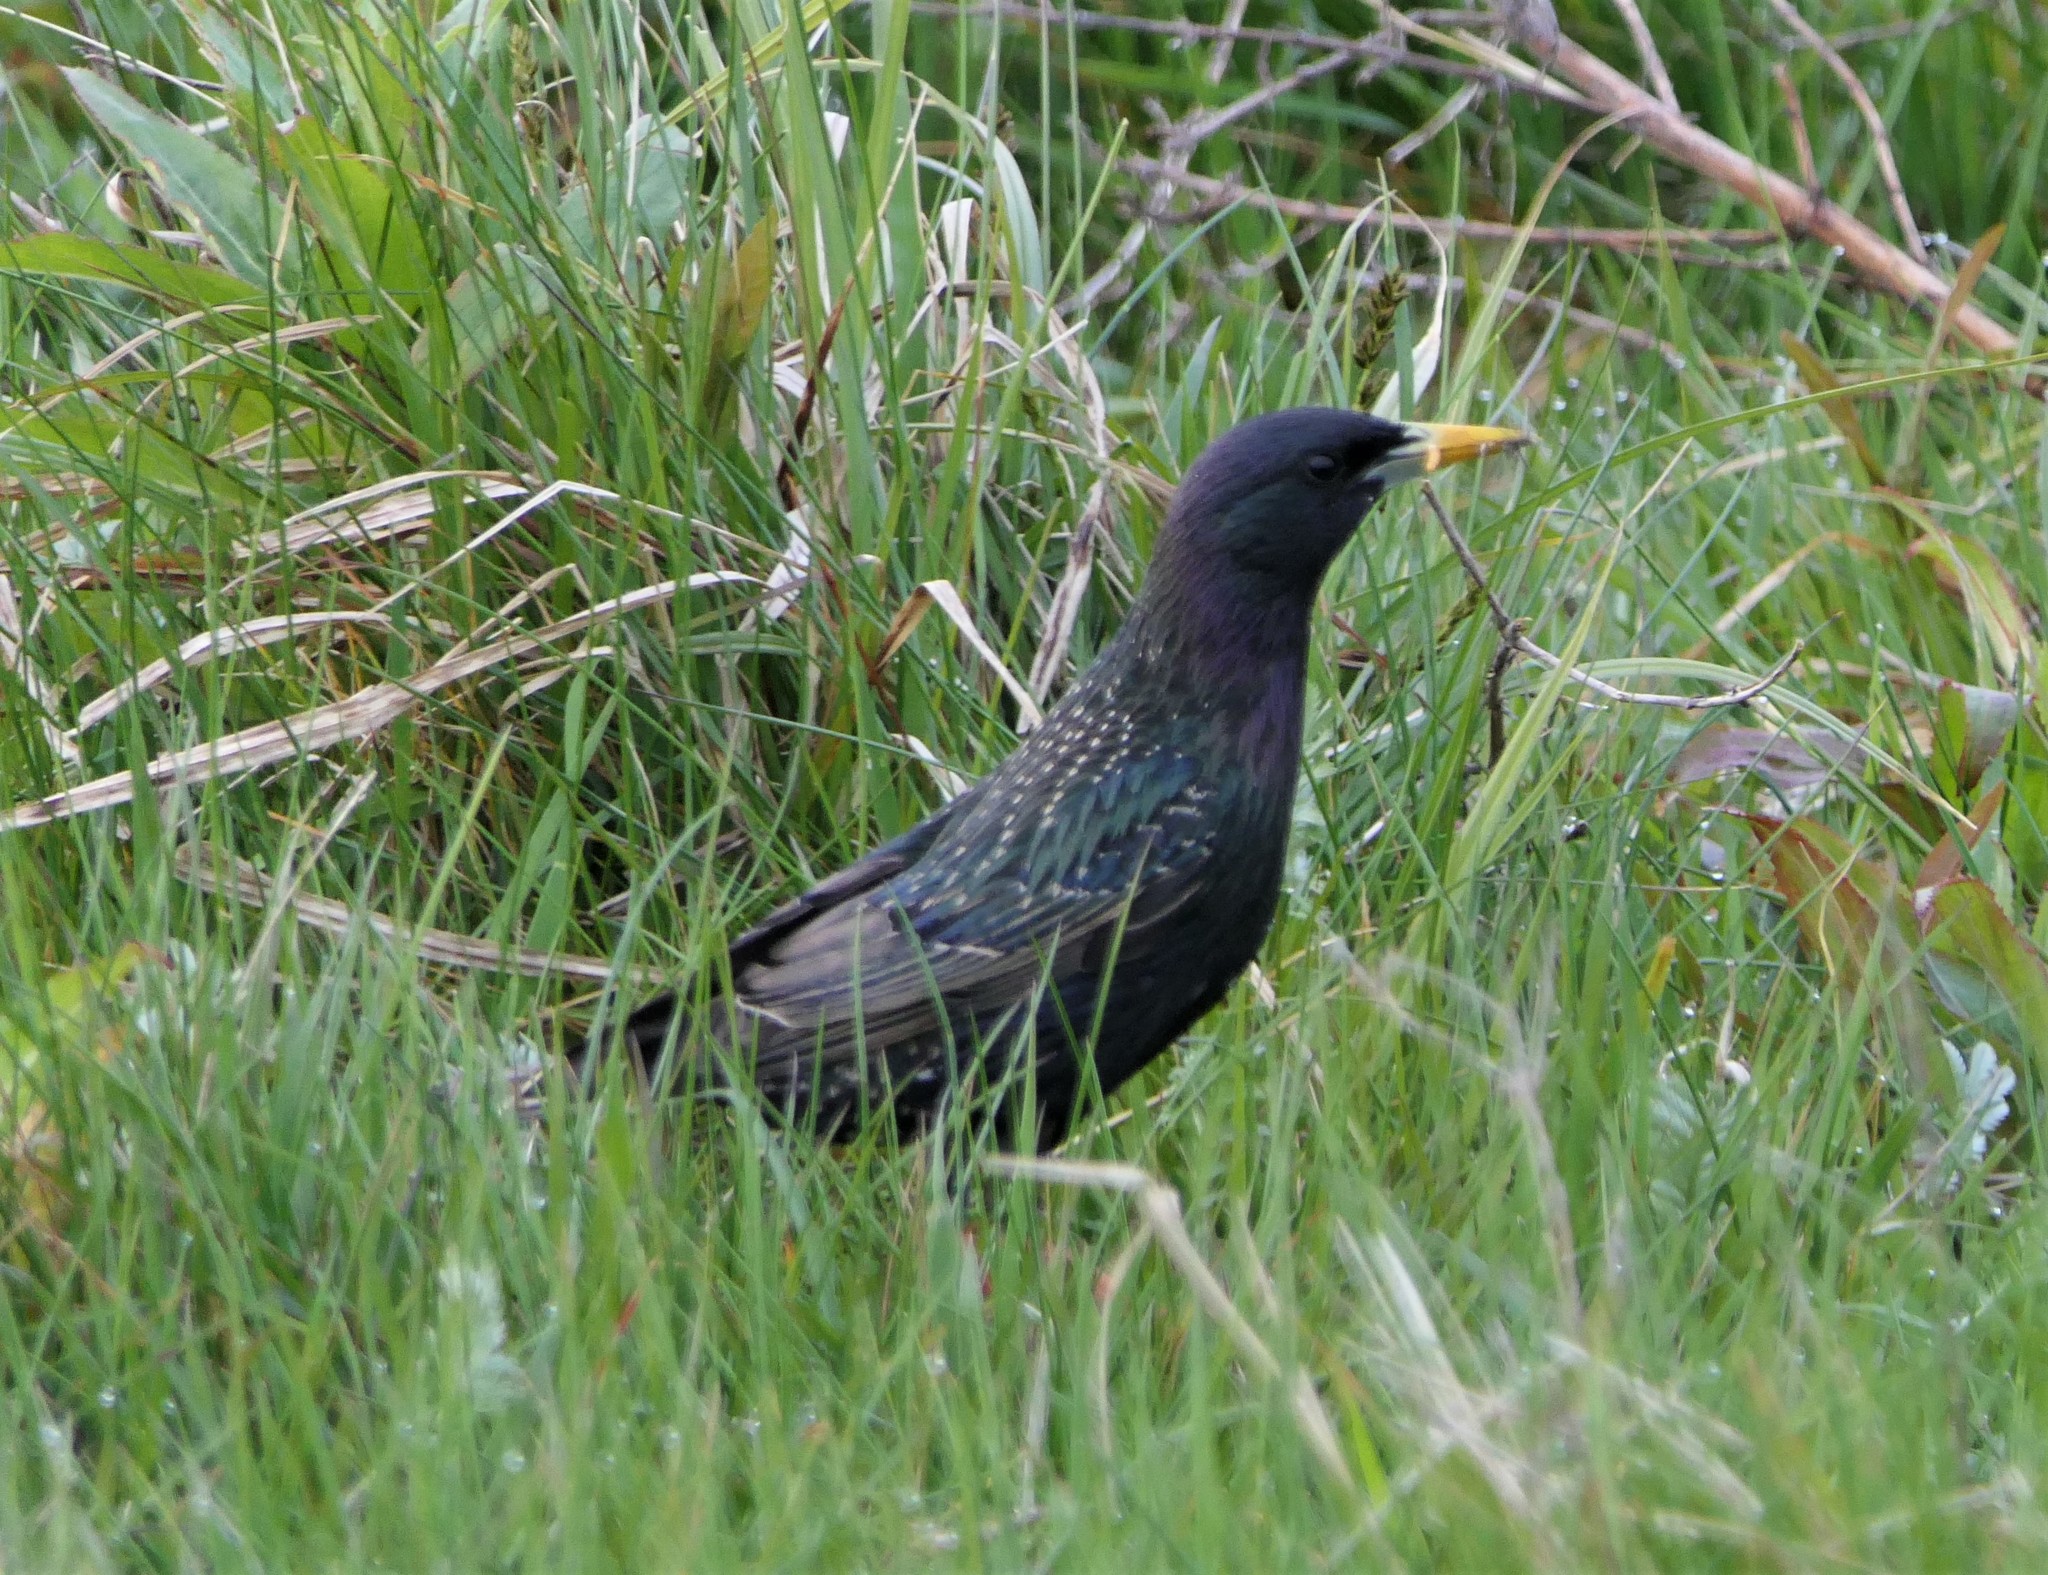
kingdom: Animalia
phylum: Chordata
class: Aves
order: Passeriformes
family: Sturnidae
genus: Sturnus
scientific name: Sturnus vulgaris
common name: Common starling
